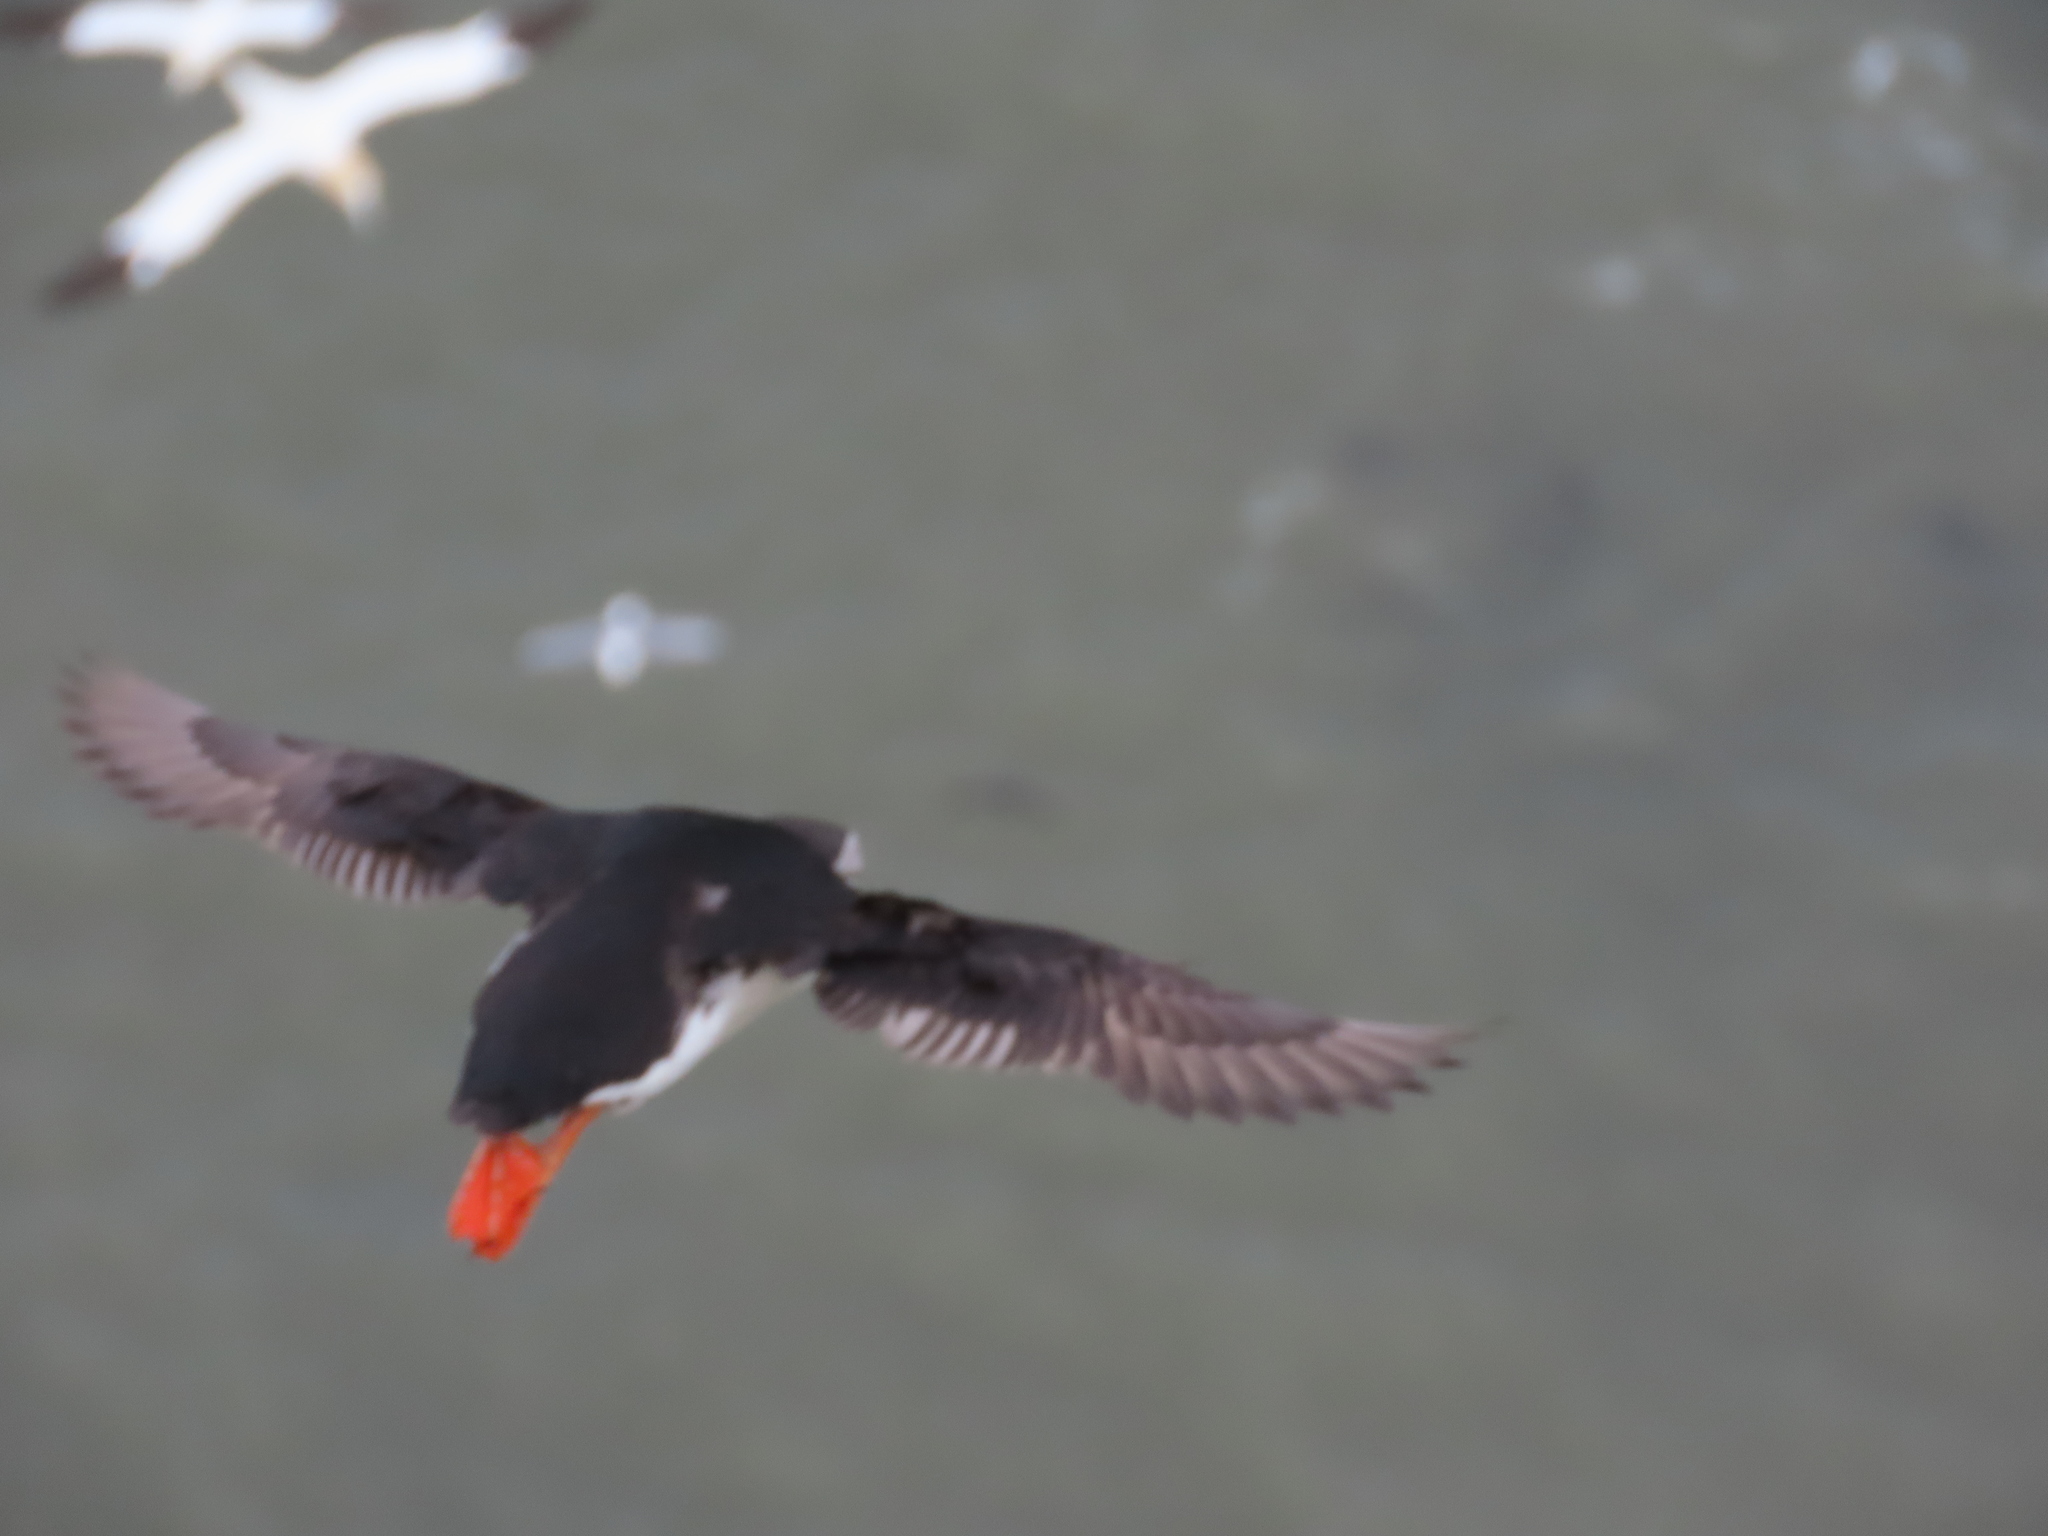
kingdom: Animalia
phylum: Chordata
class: Aves
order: Charadriiformes
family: Alcidae
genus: Fratercula
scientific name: Fratercula arctica
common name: Atlantic puffin
